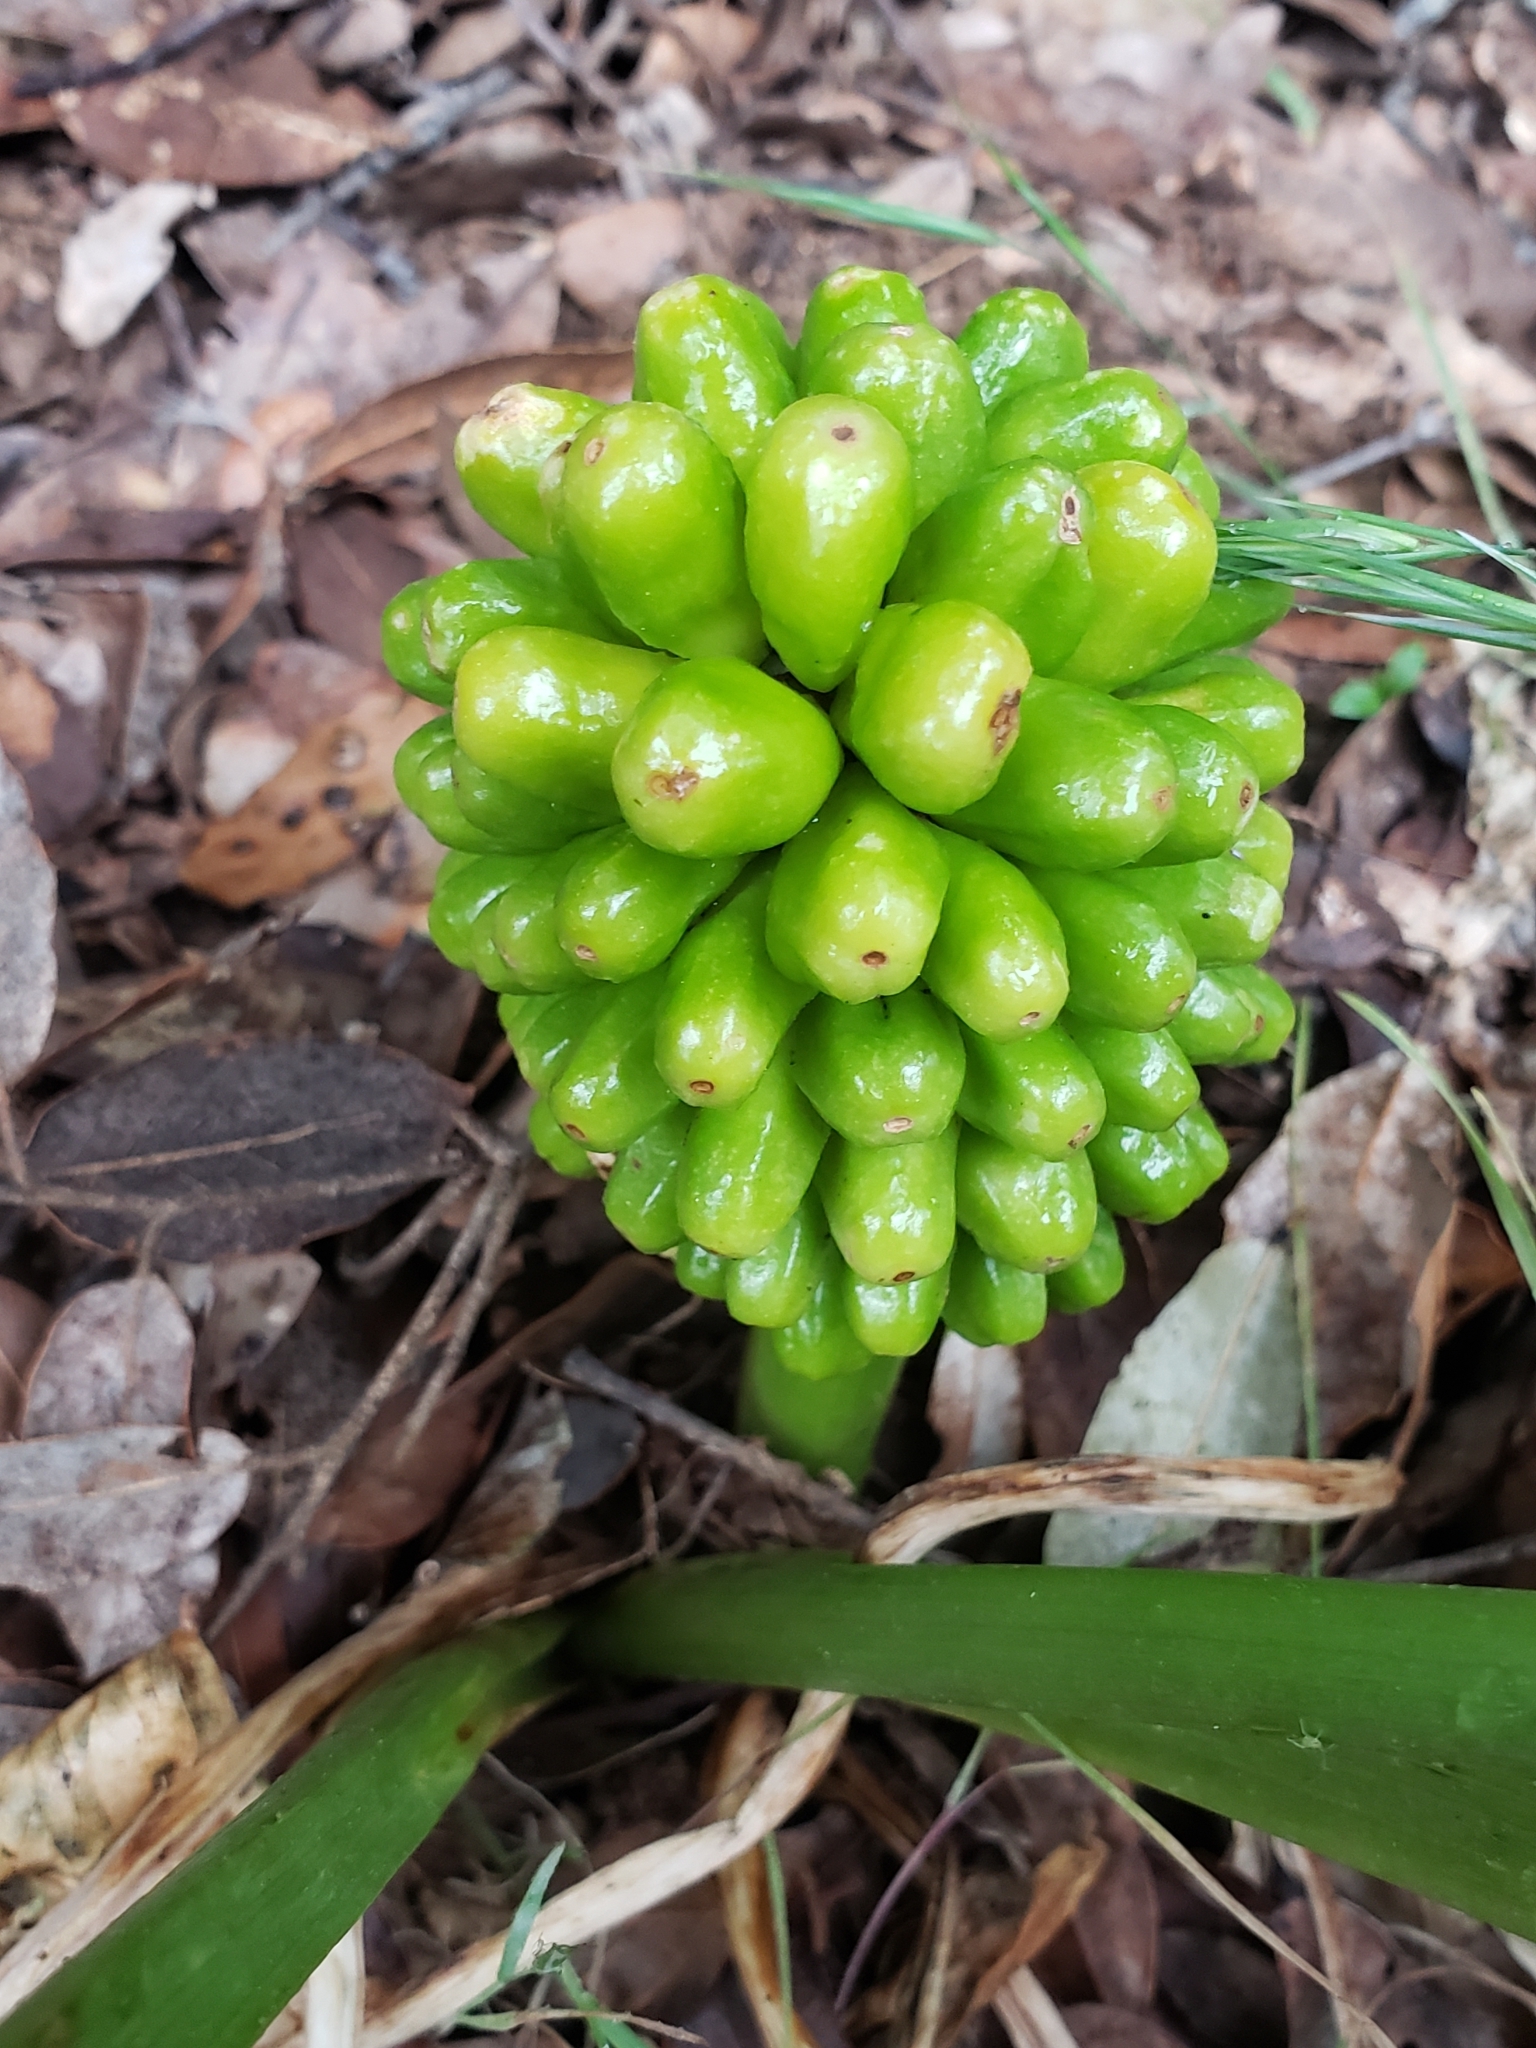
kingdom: Plantae
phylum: Tracheophyta
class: Liliopsida
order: Alismatales
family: Araceae
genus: Arum
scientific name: Arum pictum
